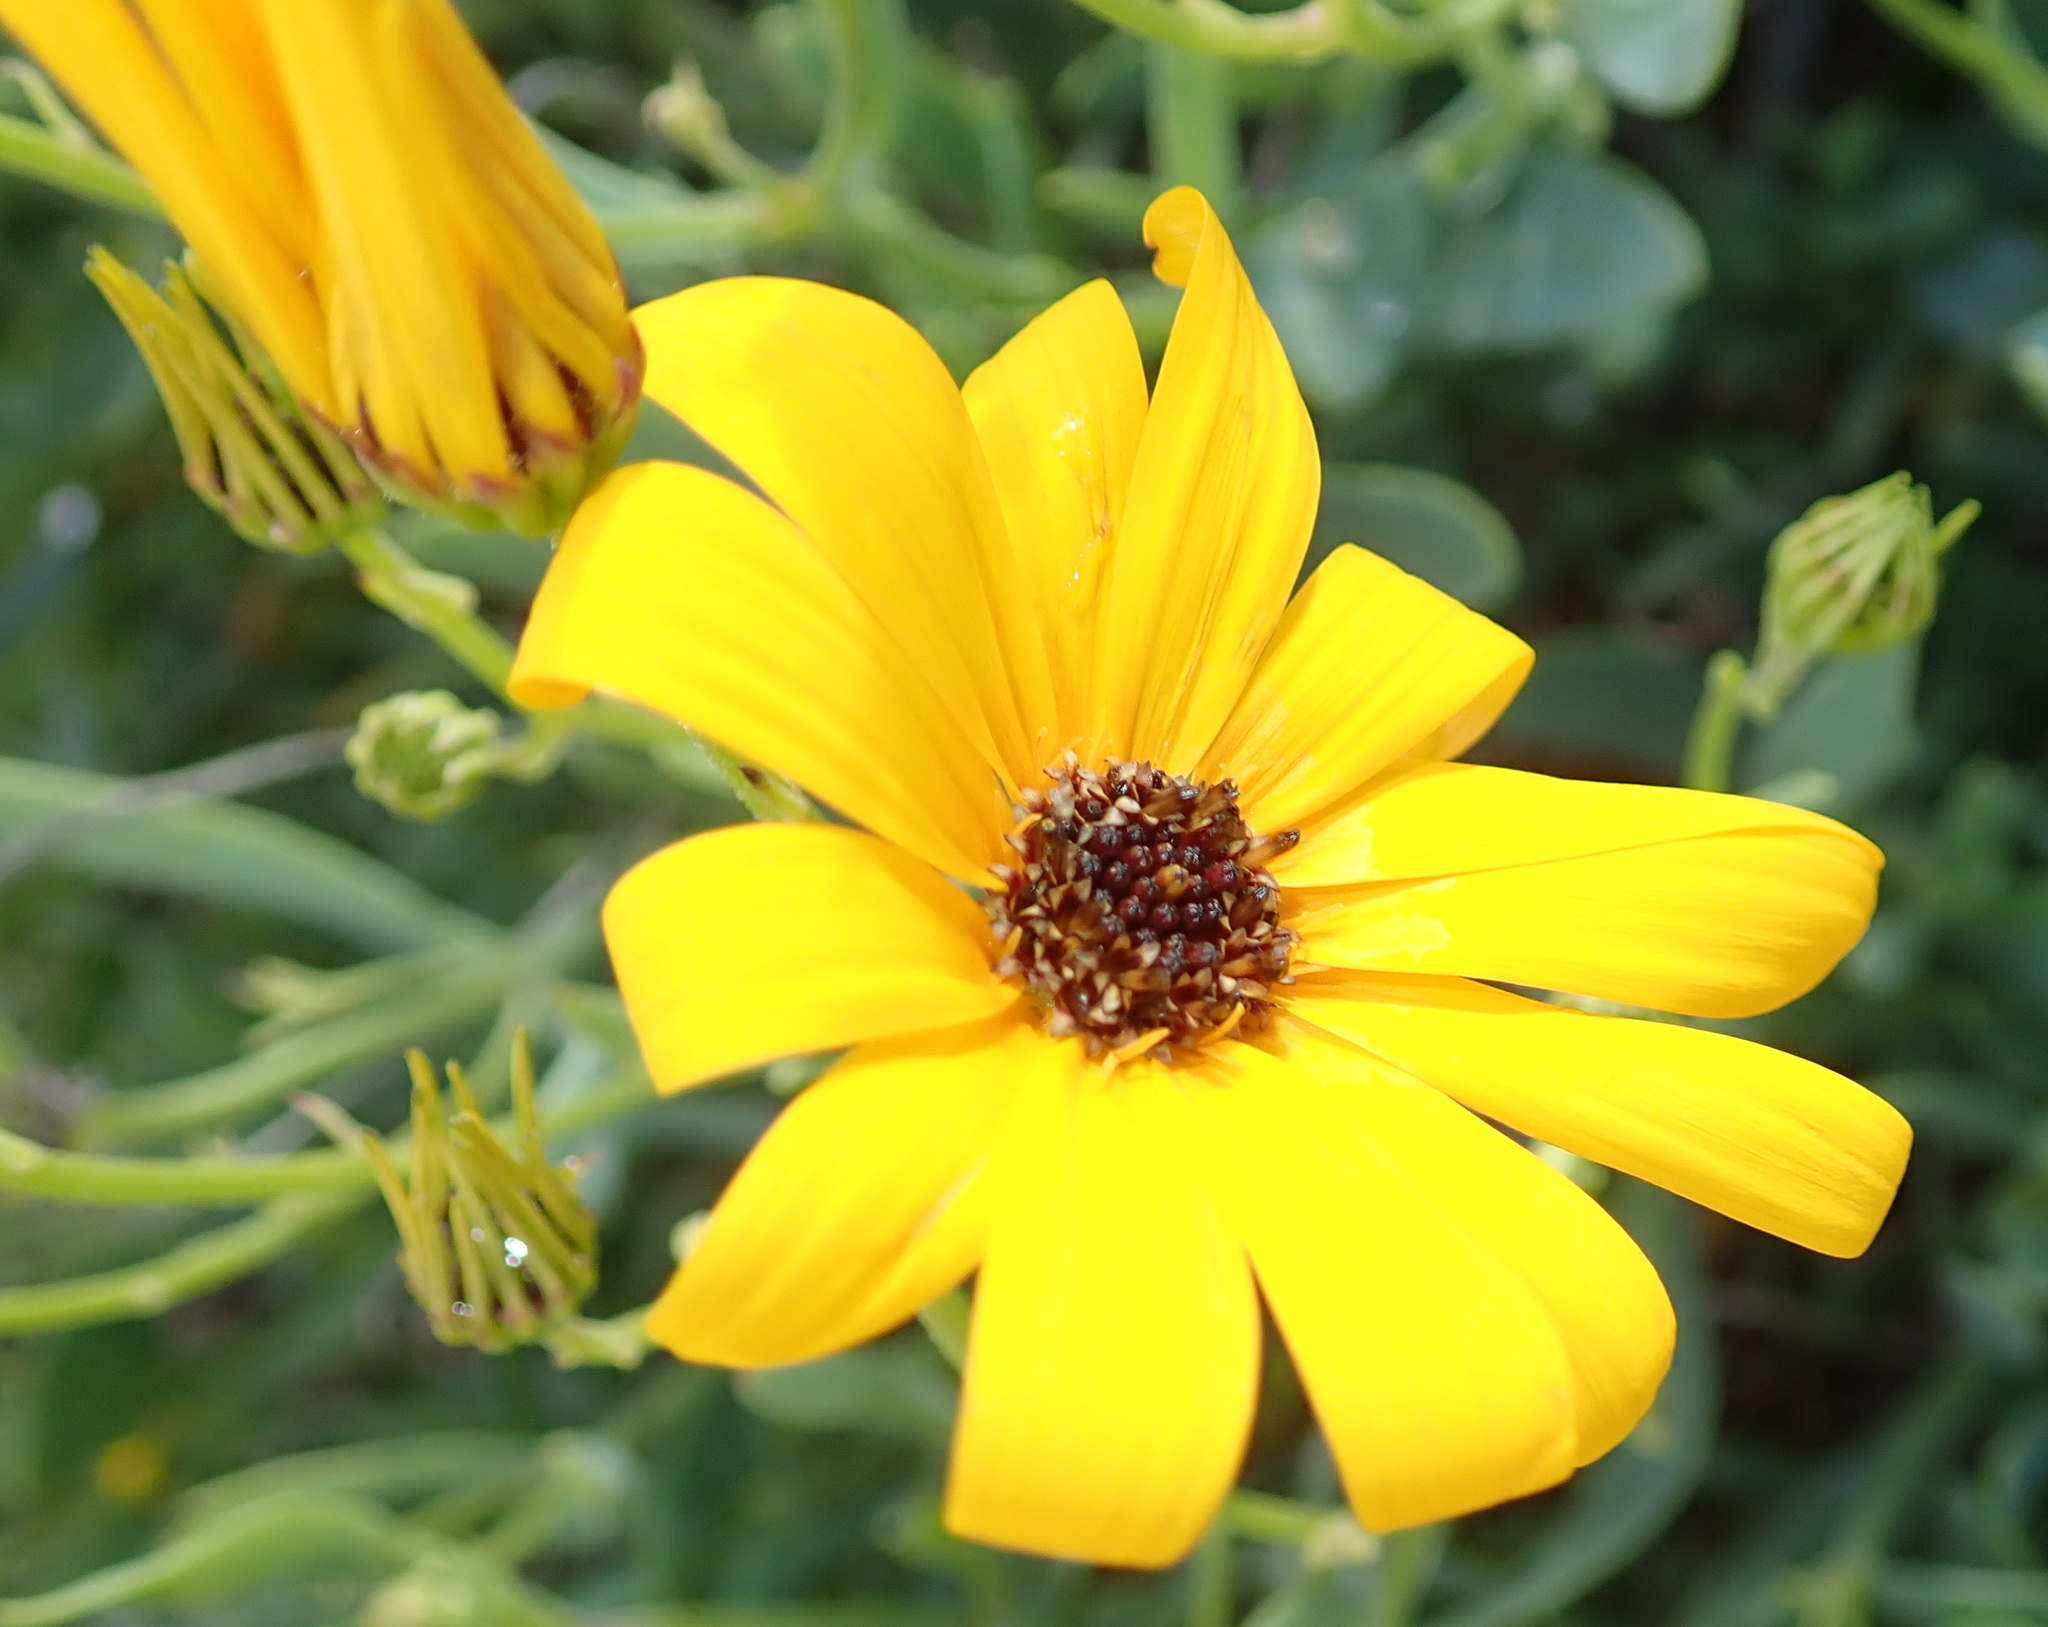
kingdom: Plantae
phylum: Tracheophyta
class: Magnoliopsida
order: Asterales
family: Asteraceae
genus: Osteospermum
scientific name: Osteospermum oppositifolium
